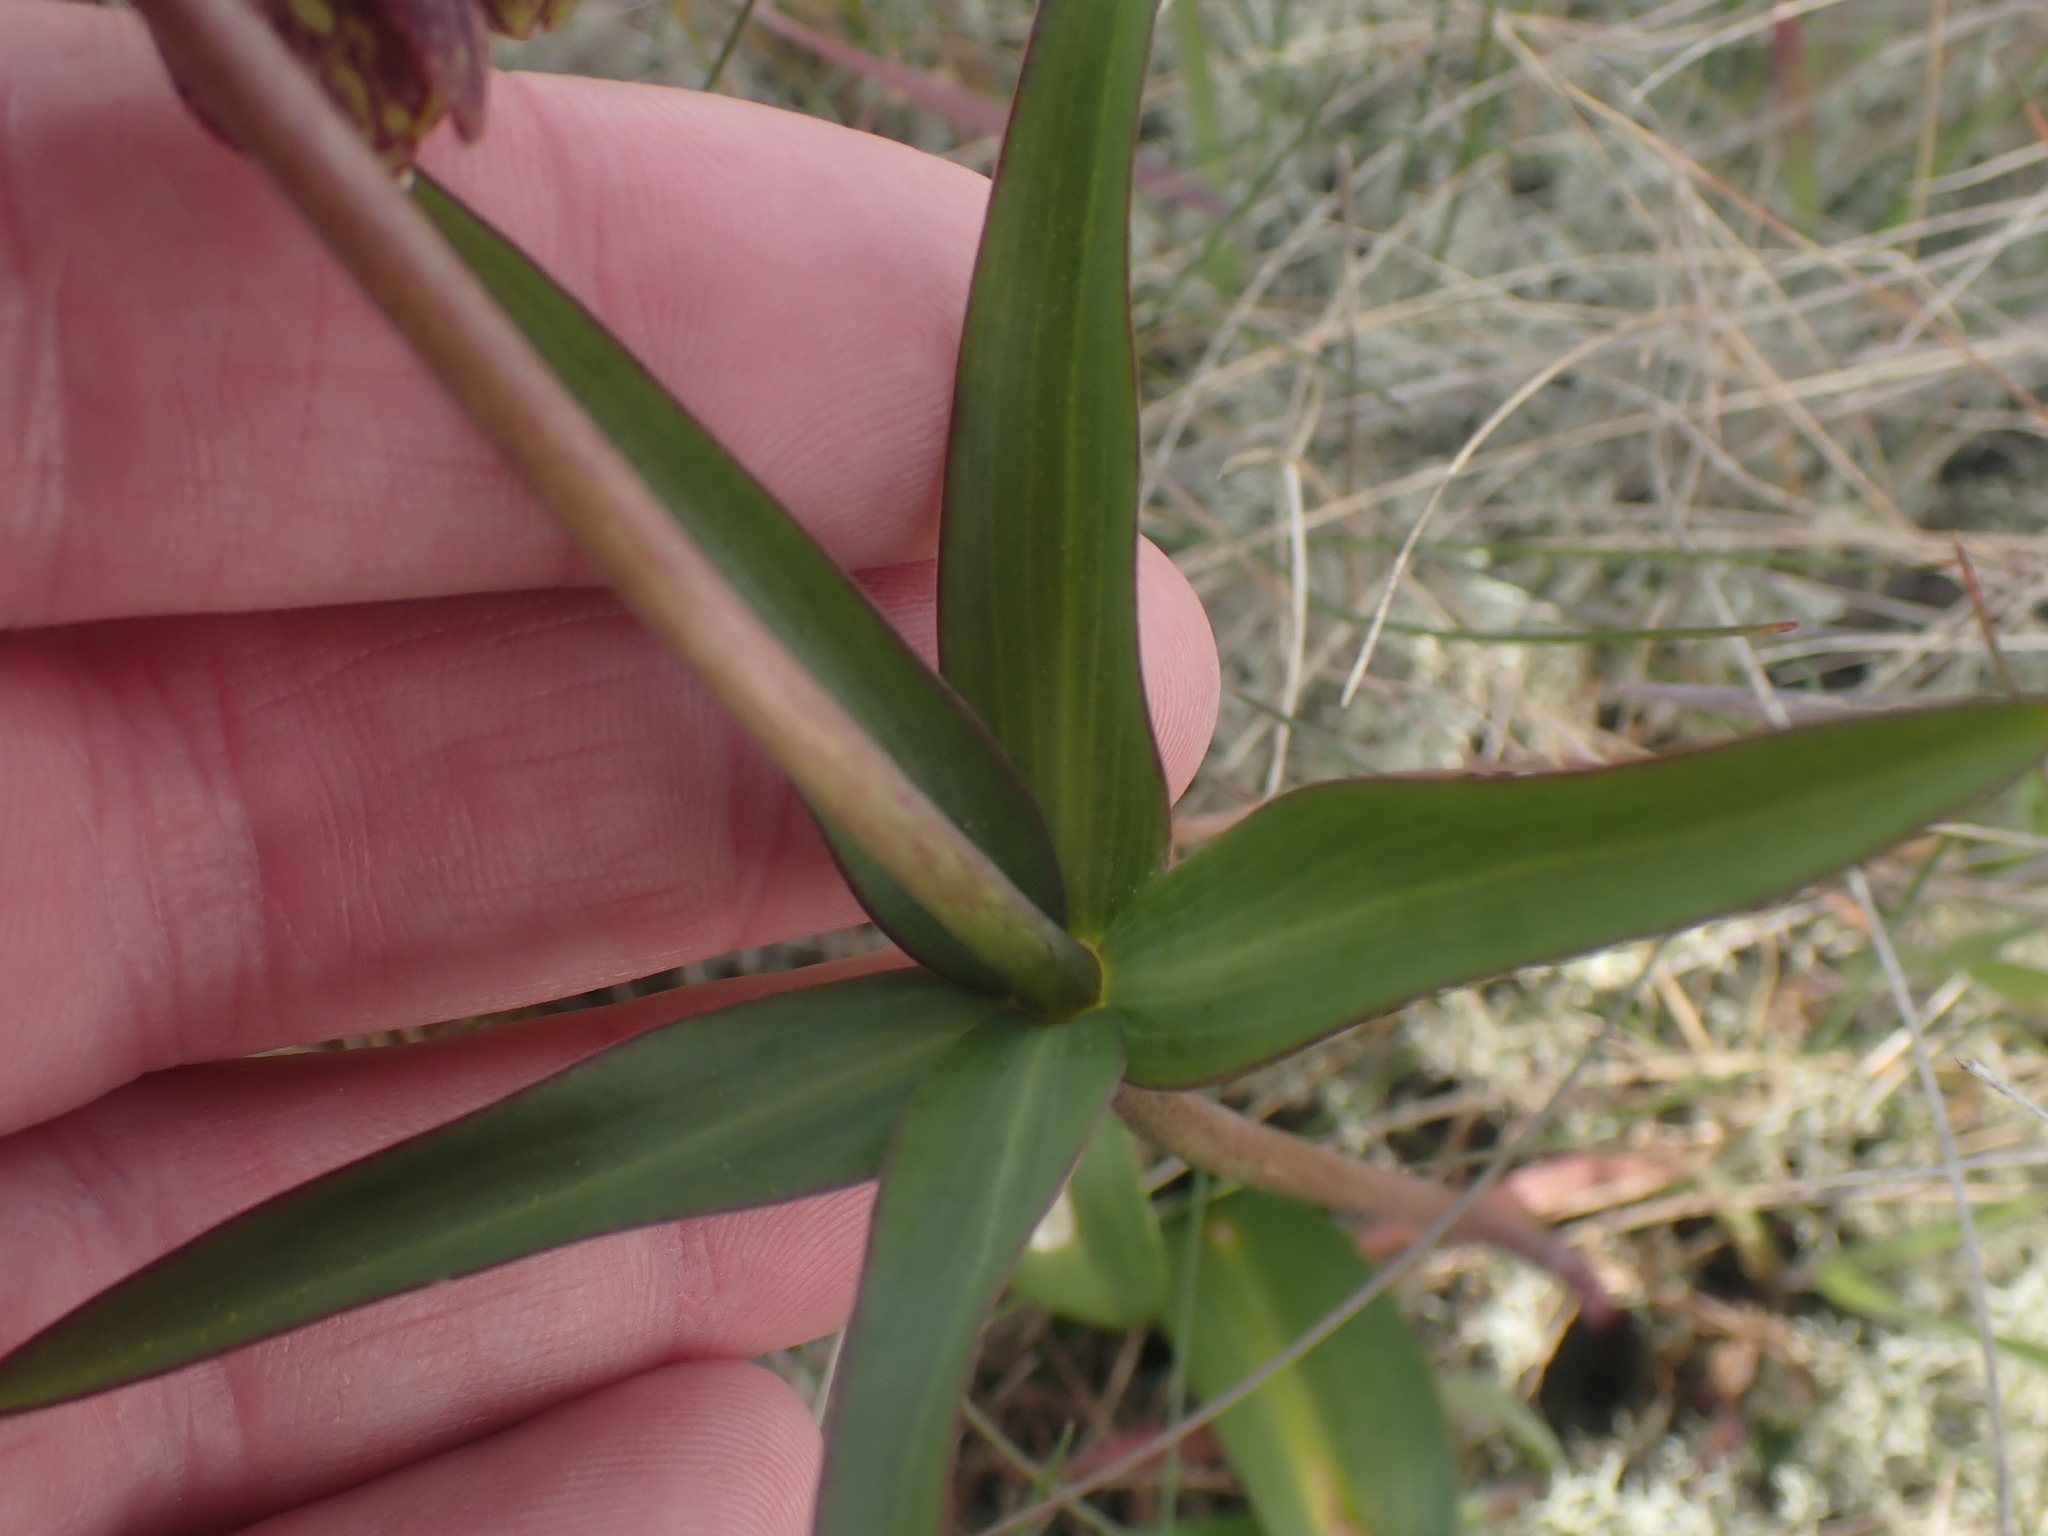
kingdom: Plantae
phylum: Tracheophyta
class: Liliopsida
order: Liliales
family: Liliaceae
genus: Fritillaria
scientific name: Fritillaria affinis
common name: Ojai fritillary
